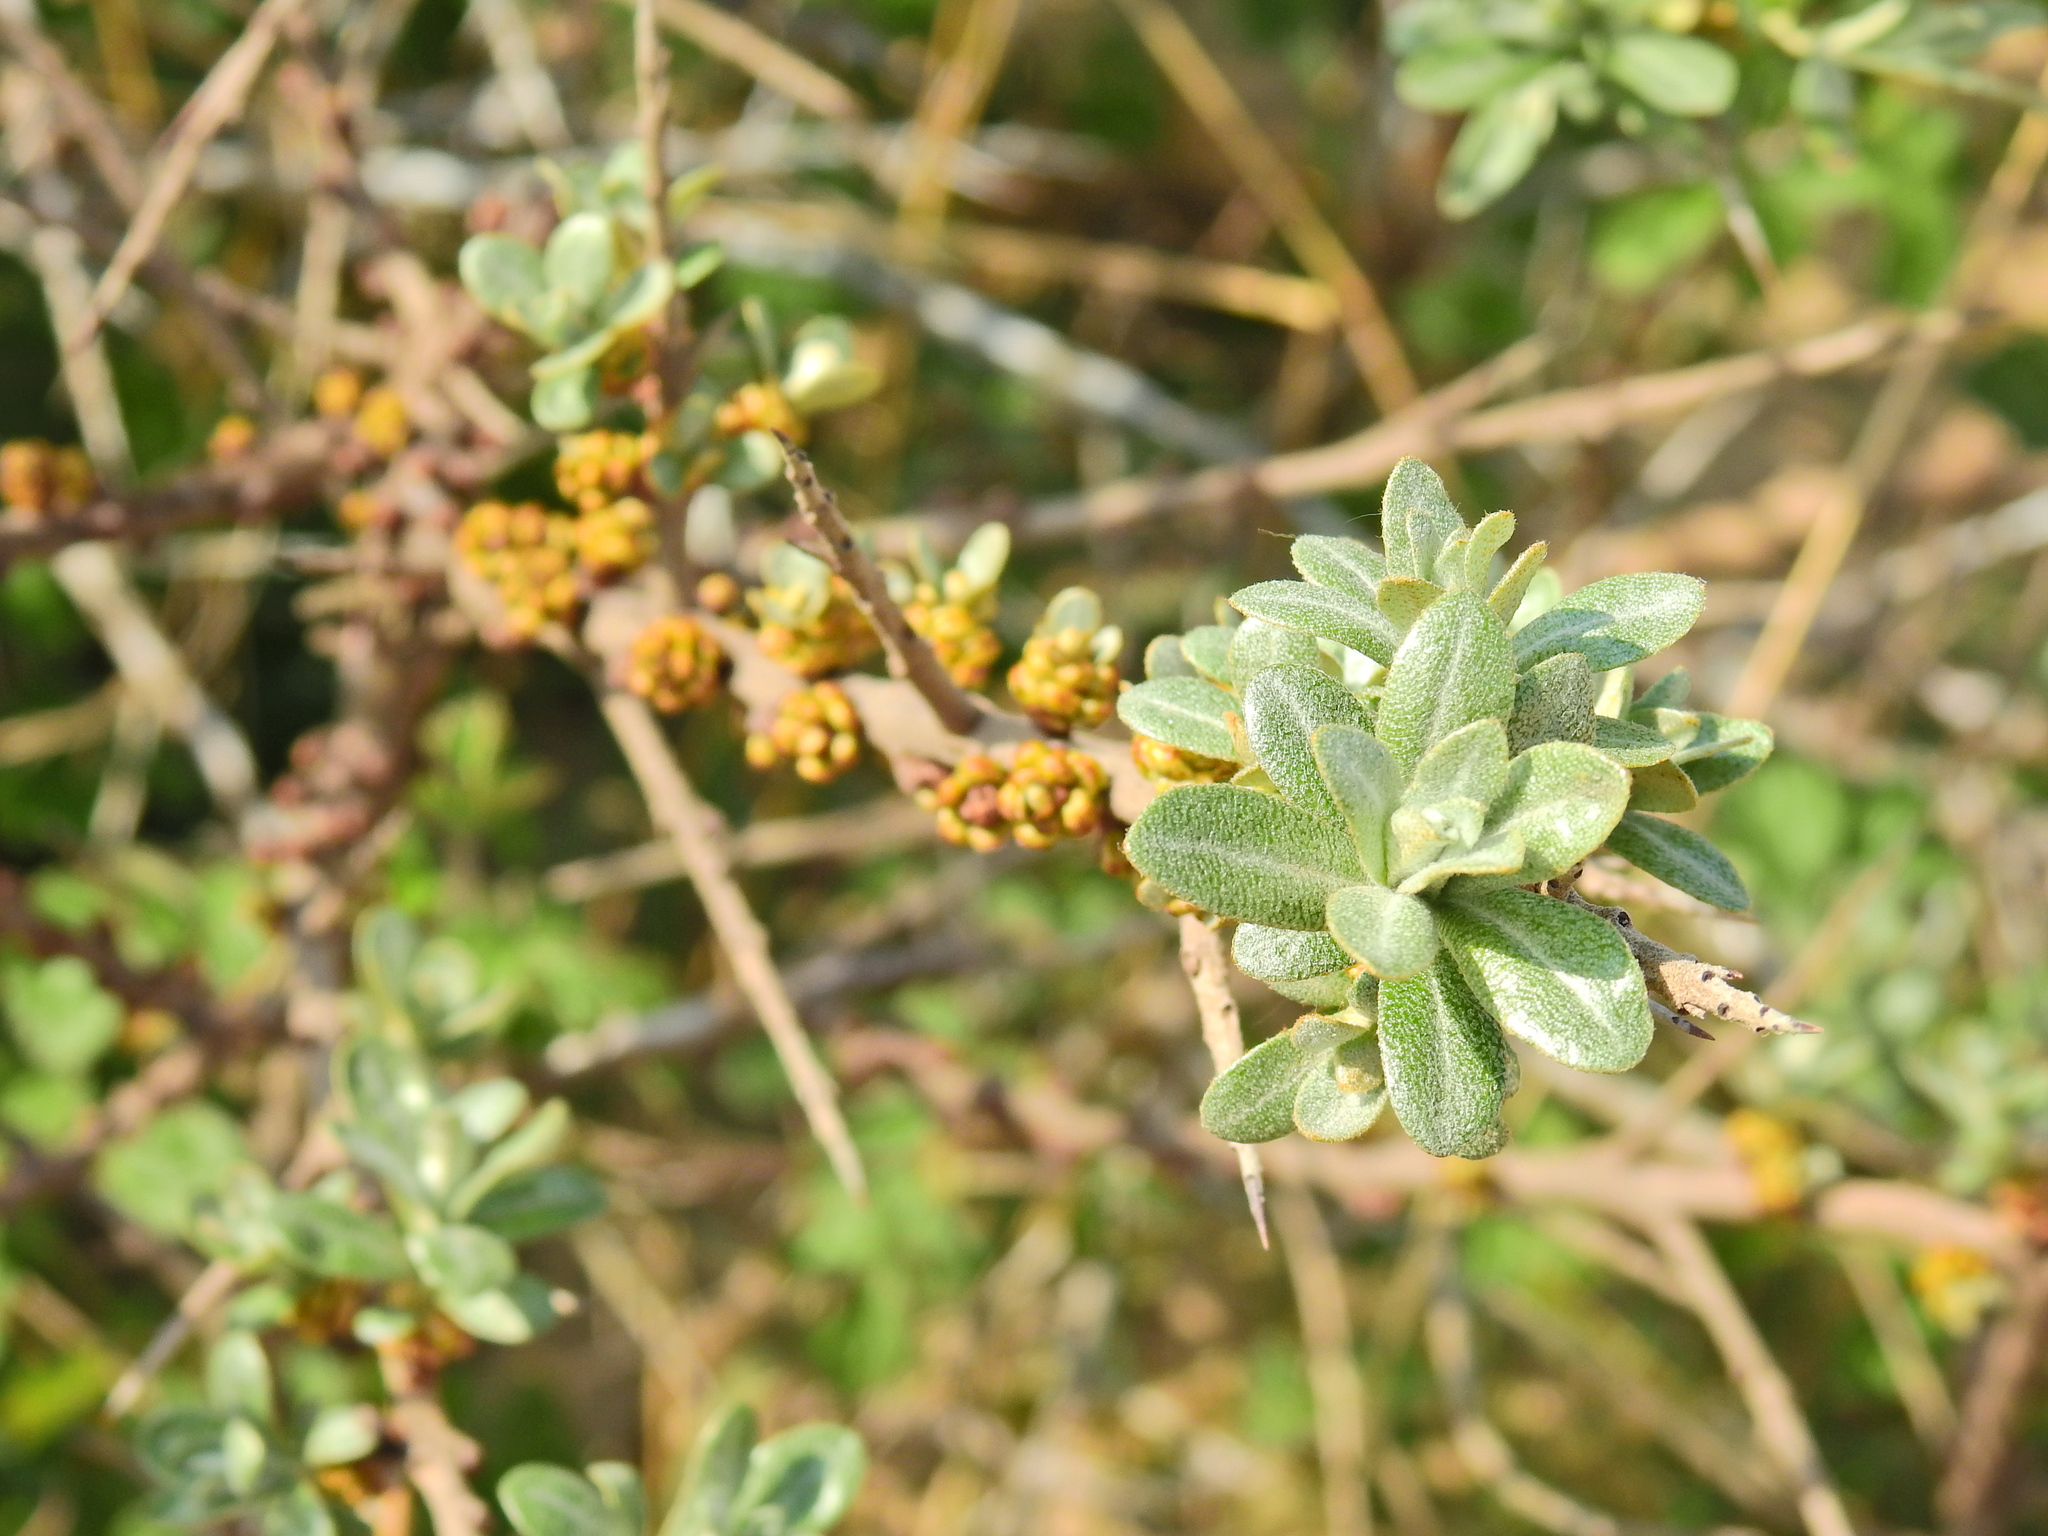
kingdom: Plantae
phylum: Tracheophyta
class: Magnoliopsida
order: Rosales
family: Elaeagnaceae
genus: Hippophae
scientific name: Hippophae rhamnoides
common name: Sea-buckthorn
